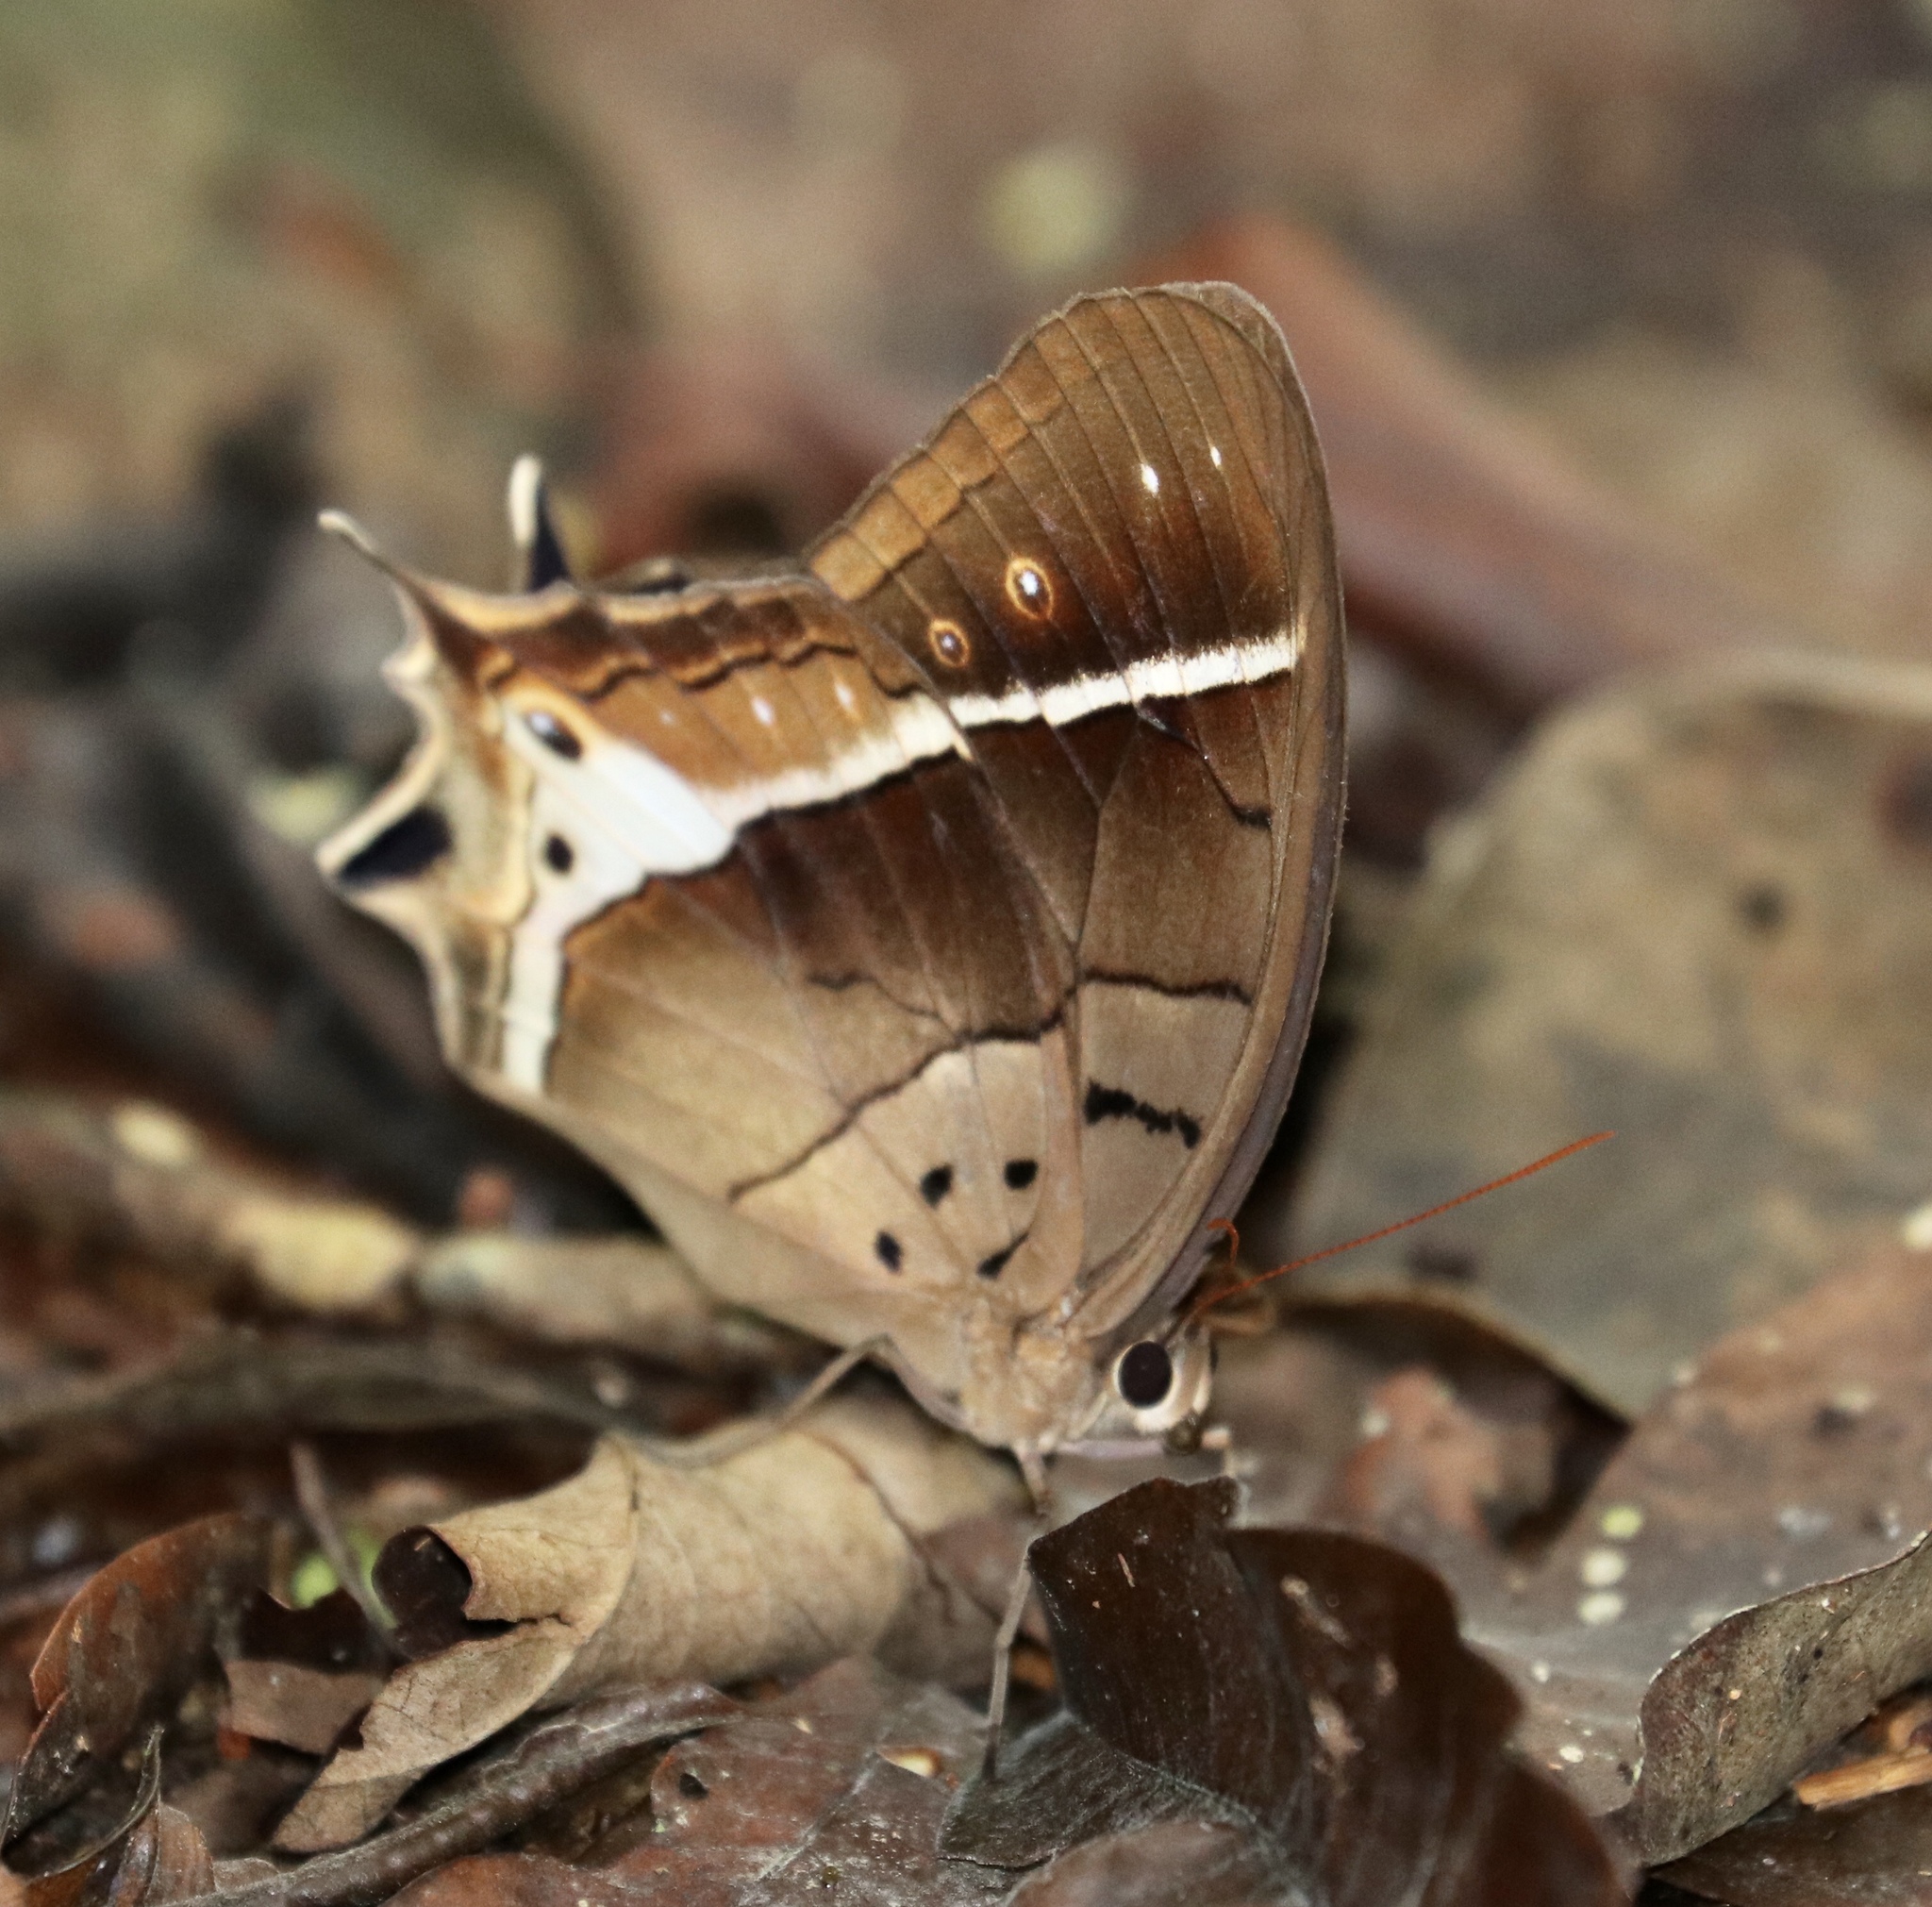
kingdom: Animalia
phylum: Arthropoda
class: Insecta
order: Lepidoptera
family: Nymphalidae
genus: Antirrhea
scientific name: Antirrhea philaretes
